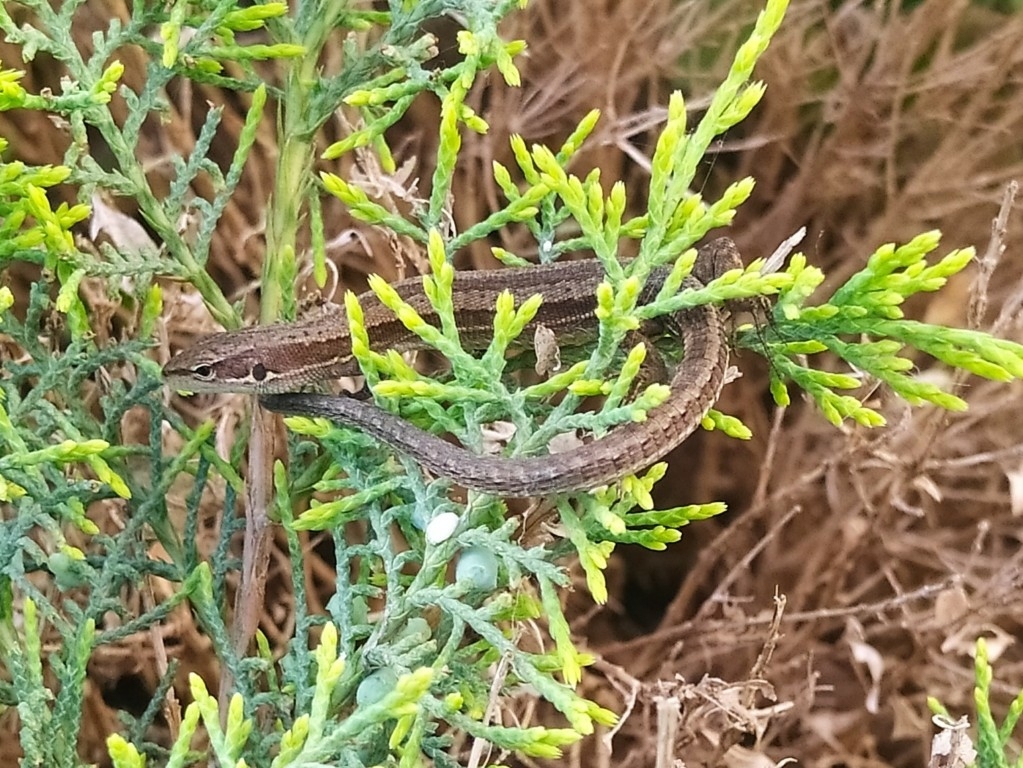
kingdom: Animalia
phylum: Chordata
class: Squamata
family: Lacertidae
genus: Darevskia
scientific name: Darevskia praticola
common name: Meadow lizard
